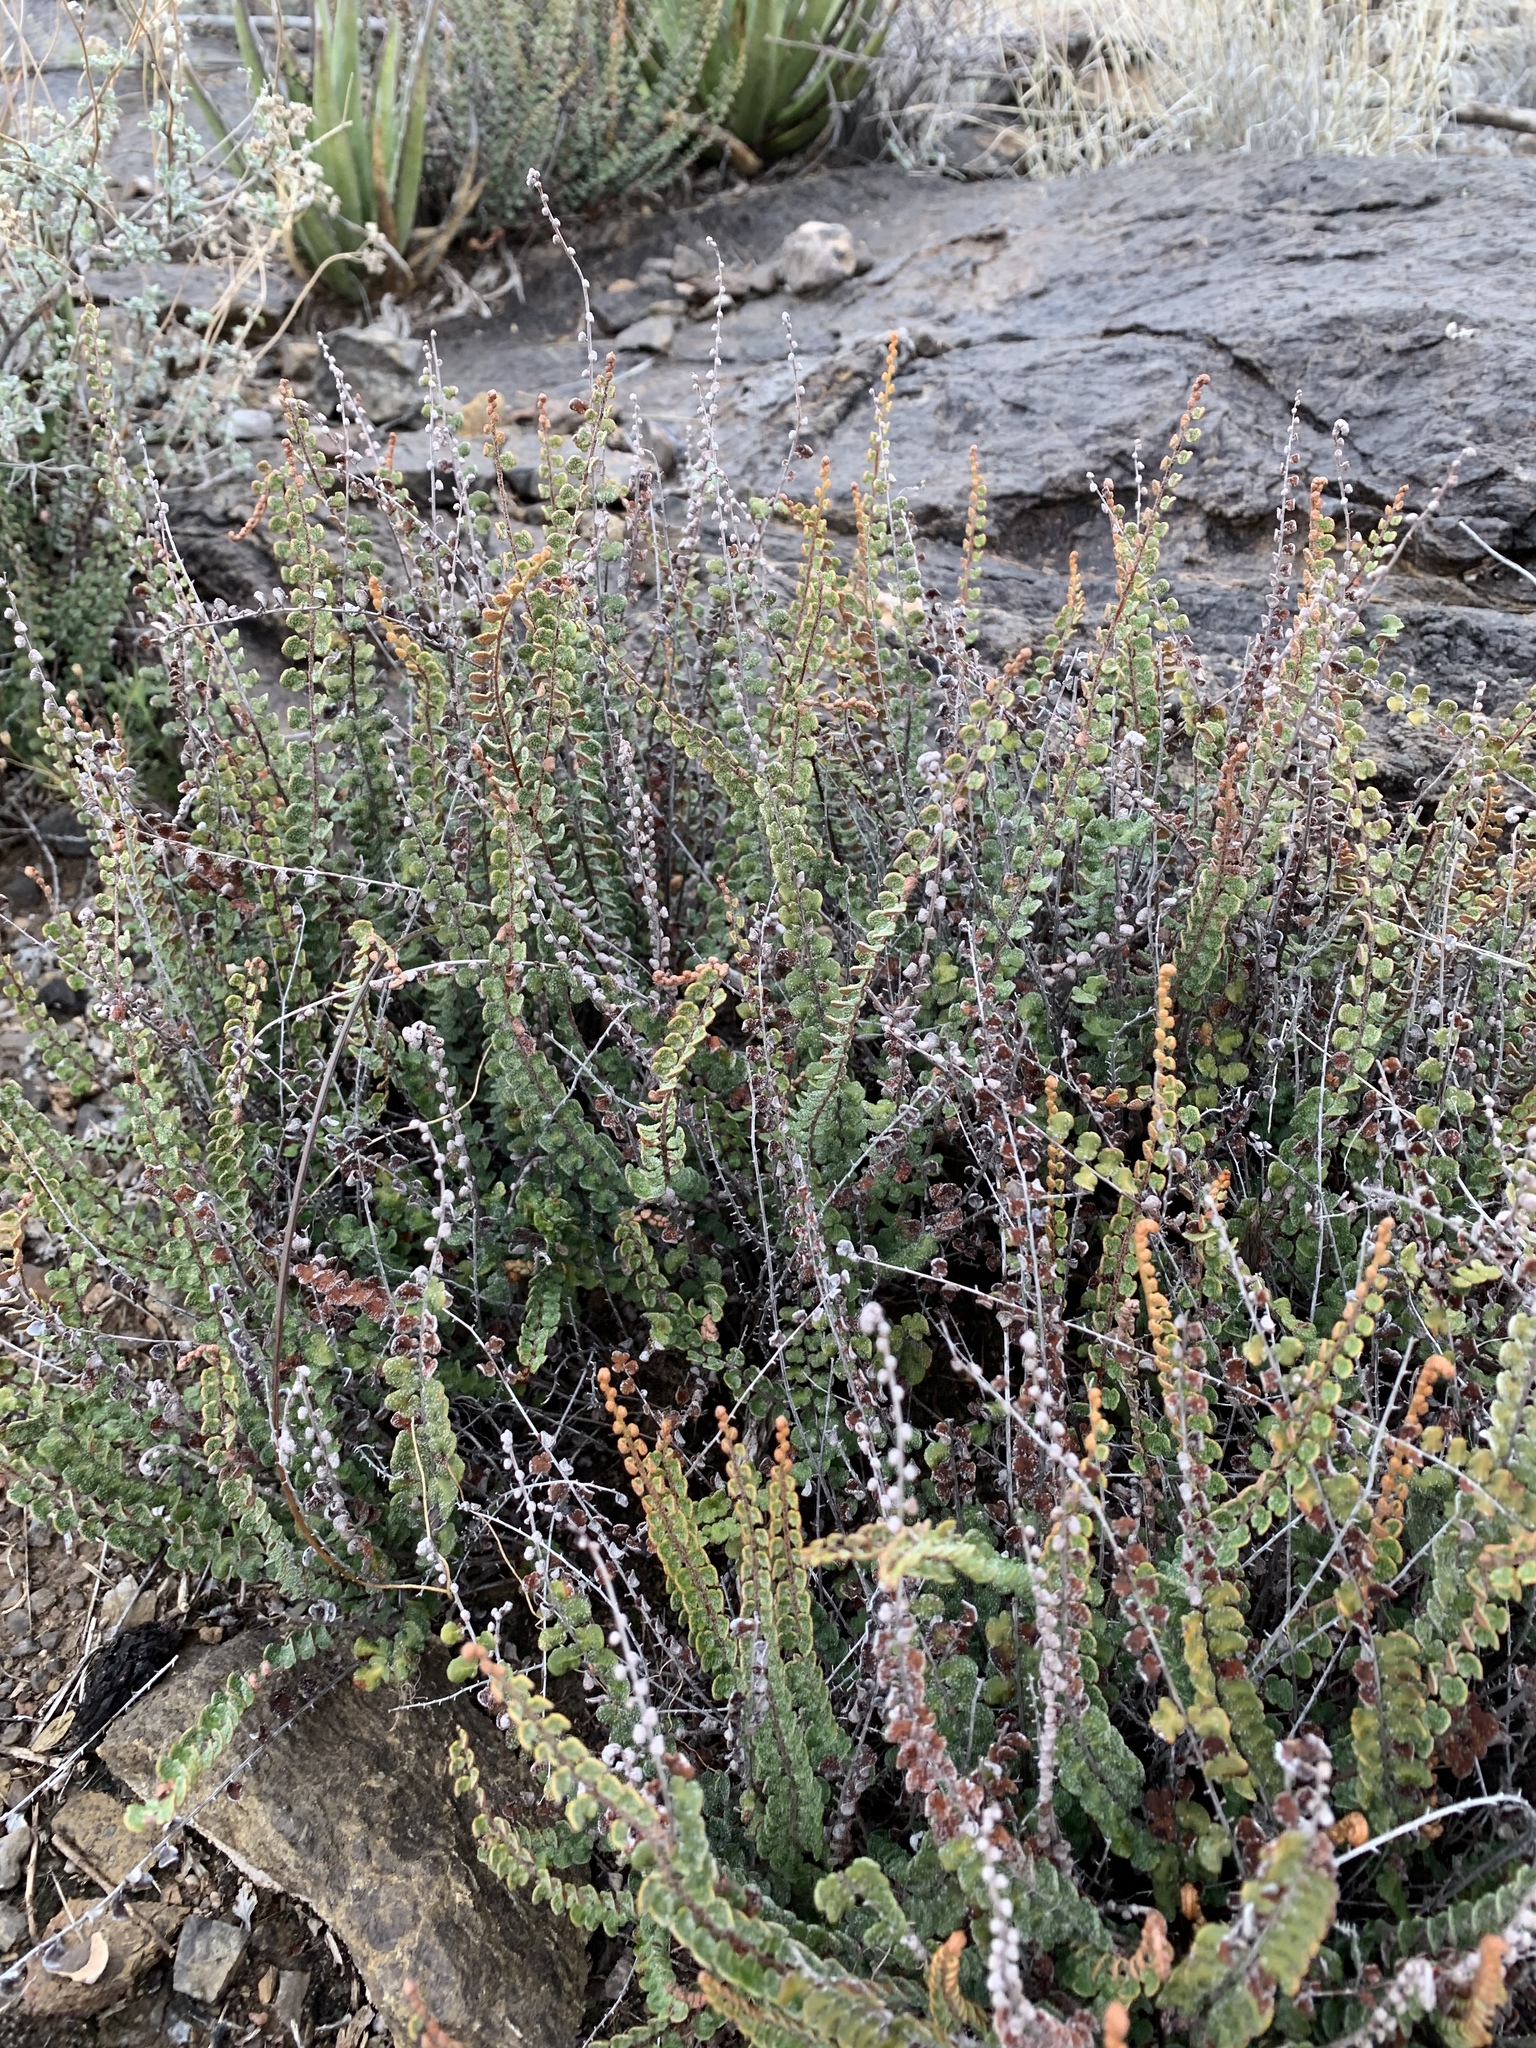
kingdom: Plantae
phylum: Tracheophyta
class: Polypodiopsida
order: Polypodiales
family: Pteridaceae
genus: Astrolepis
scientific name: Astrolepis cochisensis
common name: Scaly cloak fern
